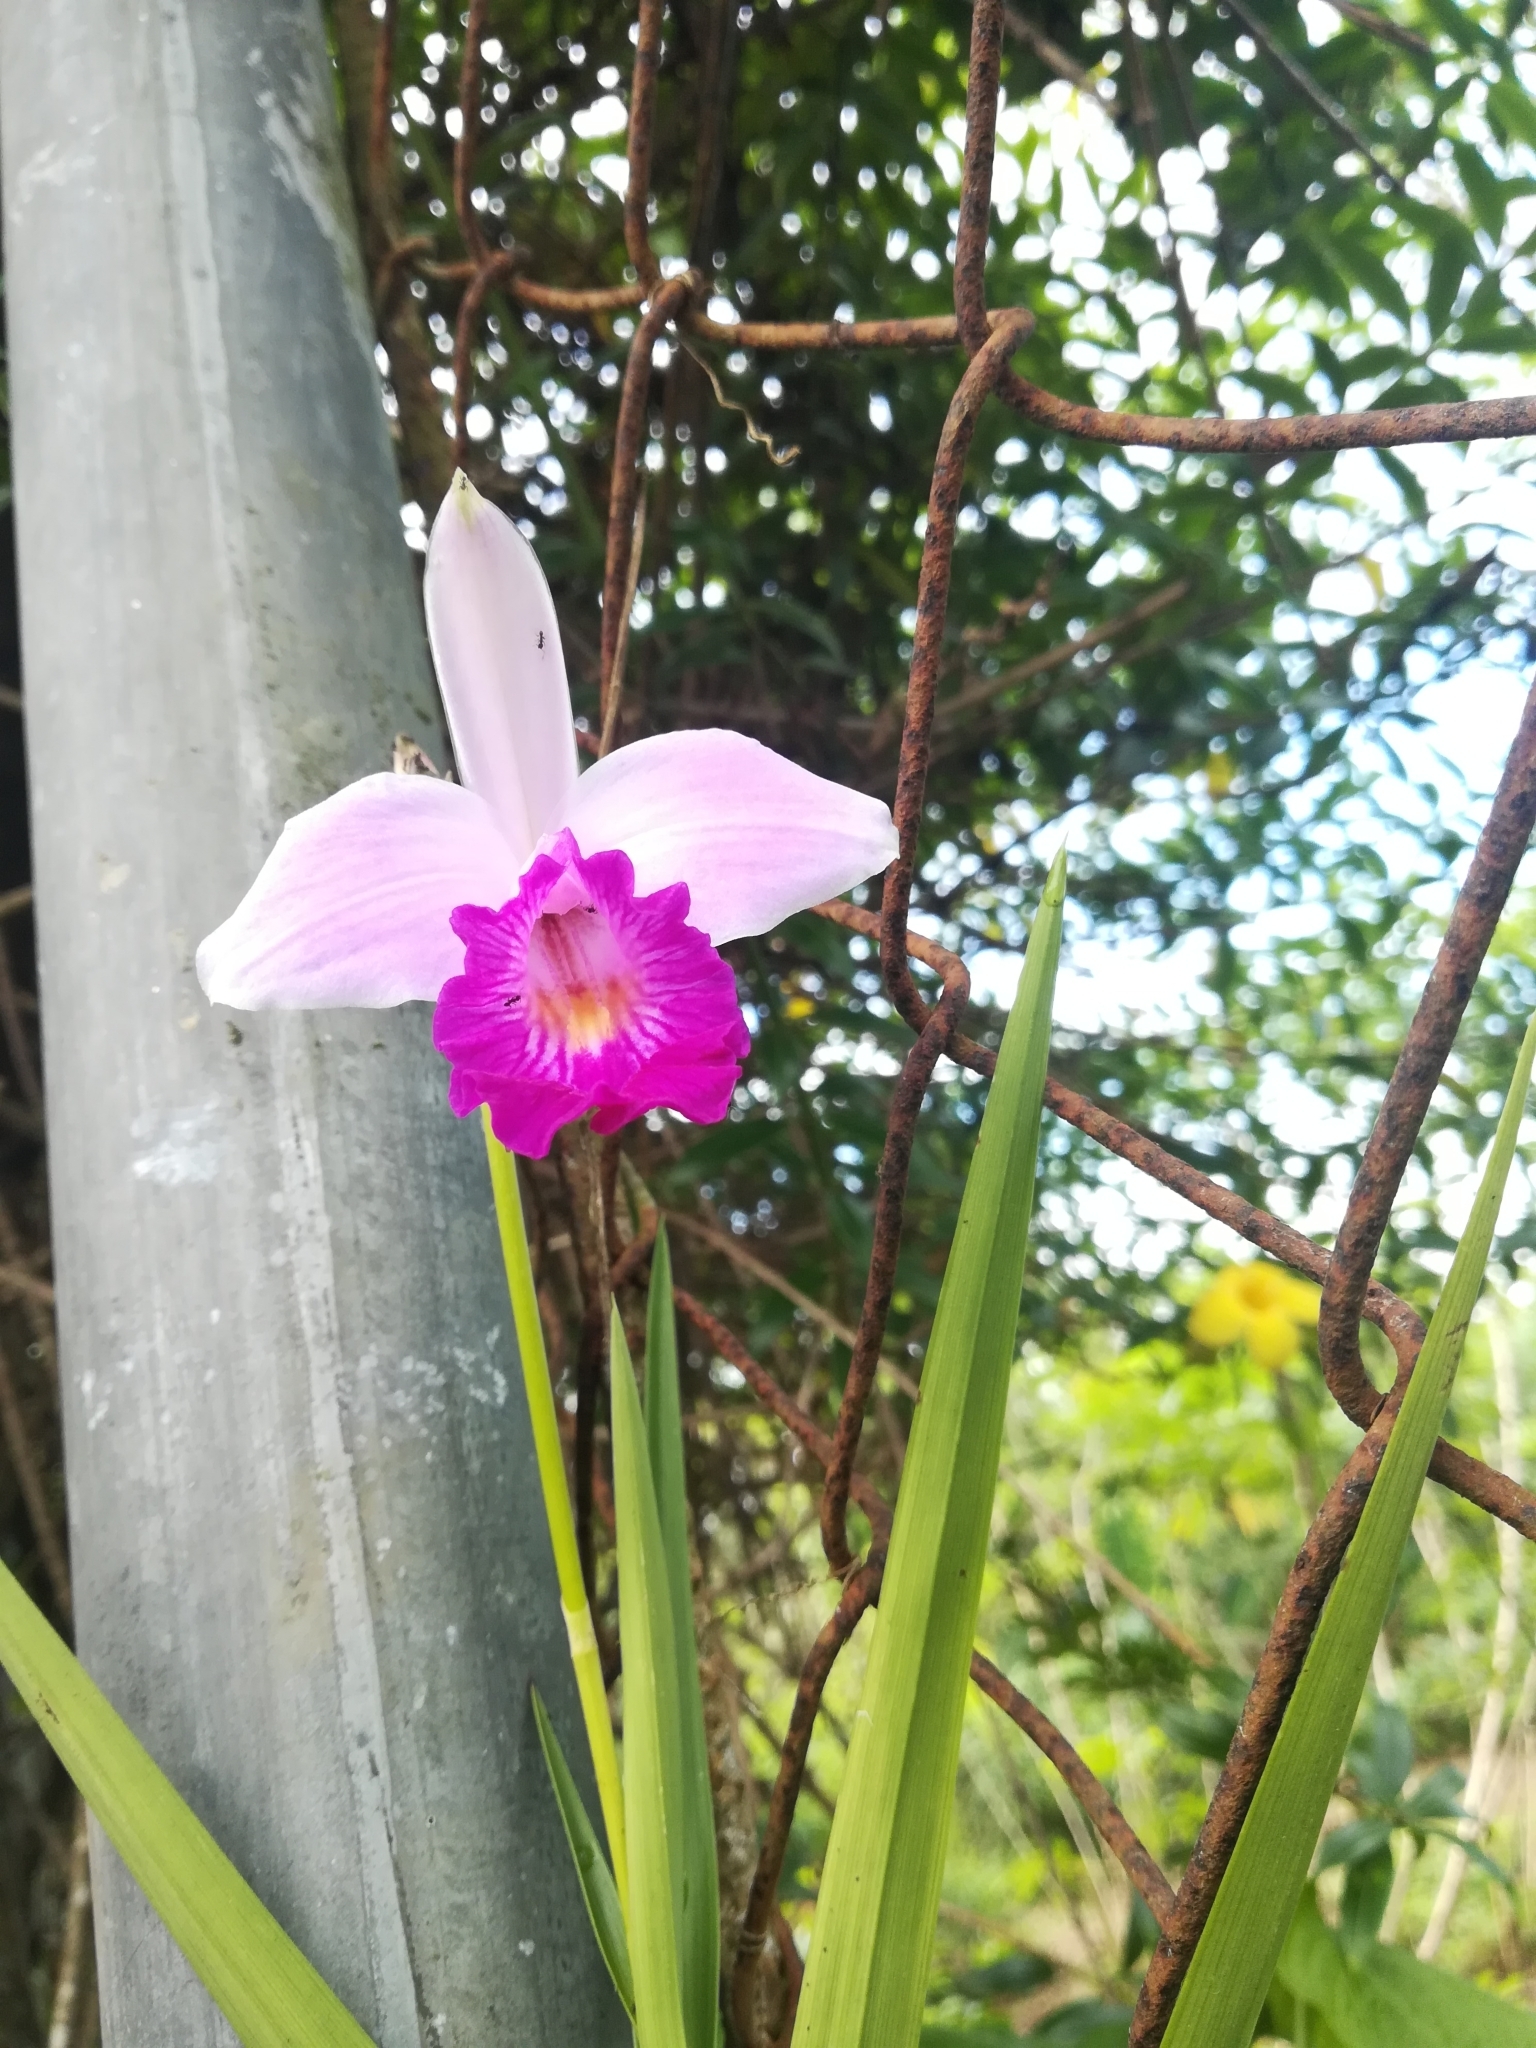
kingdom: Plantae
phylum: Tracheophyta
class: Liliopsida
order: Asparagales
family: Orchidaceae
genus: Arundina
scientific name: Arundina graminifolia
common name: Bamboo orchid
